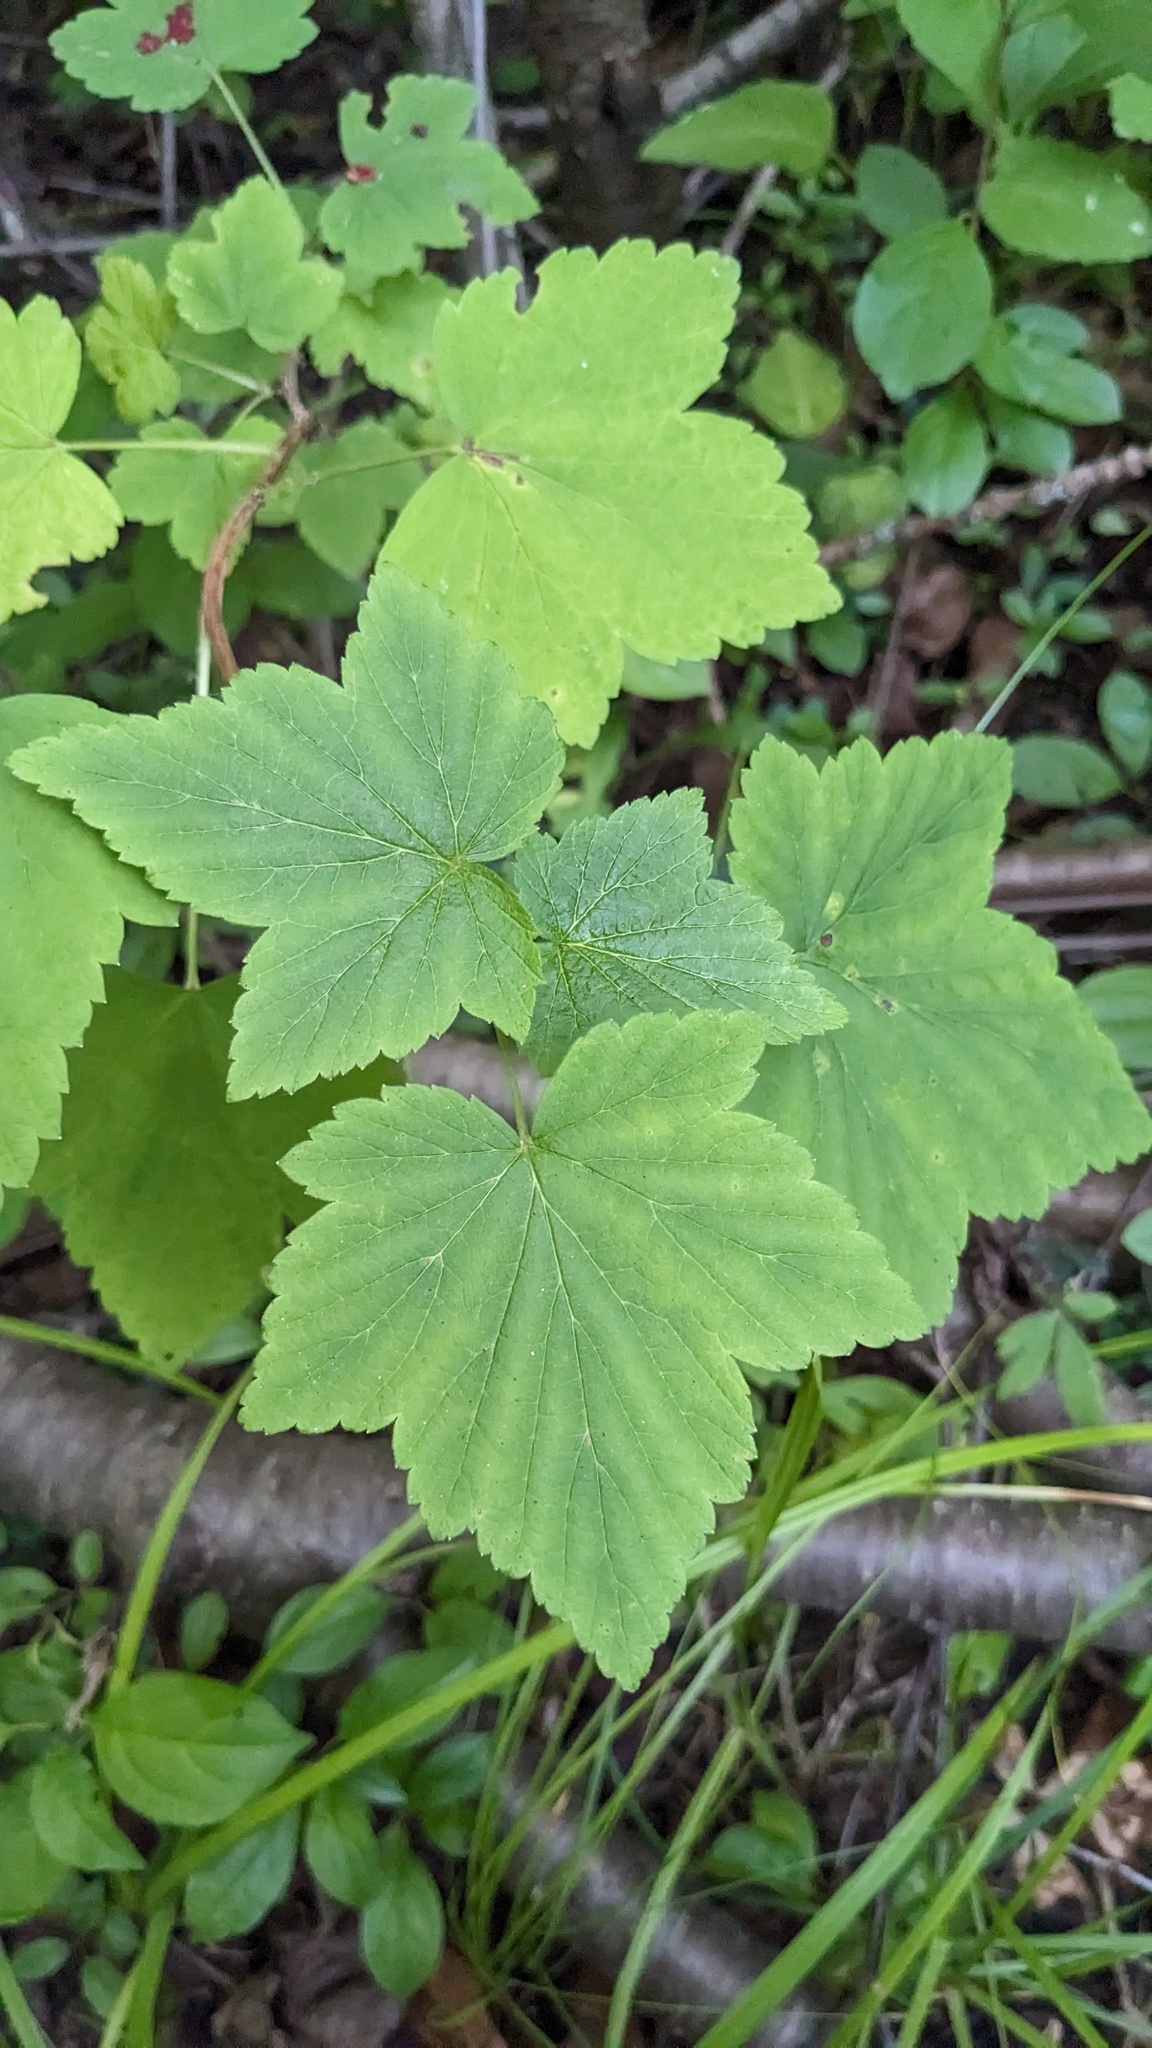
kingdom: Plantae
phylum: Tracheophyta
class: Magnoliopsida
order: Saxifragales
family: Grossulariaceae
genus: Ribes
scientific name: Ribes americanum
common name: American black currant
